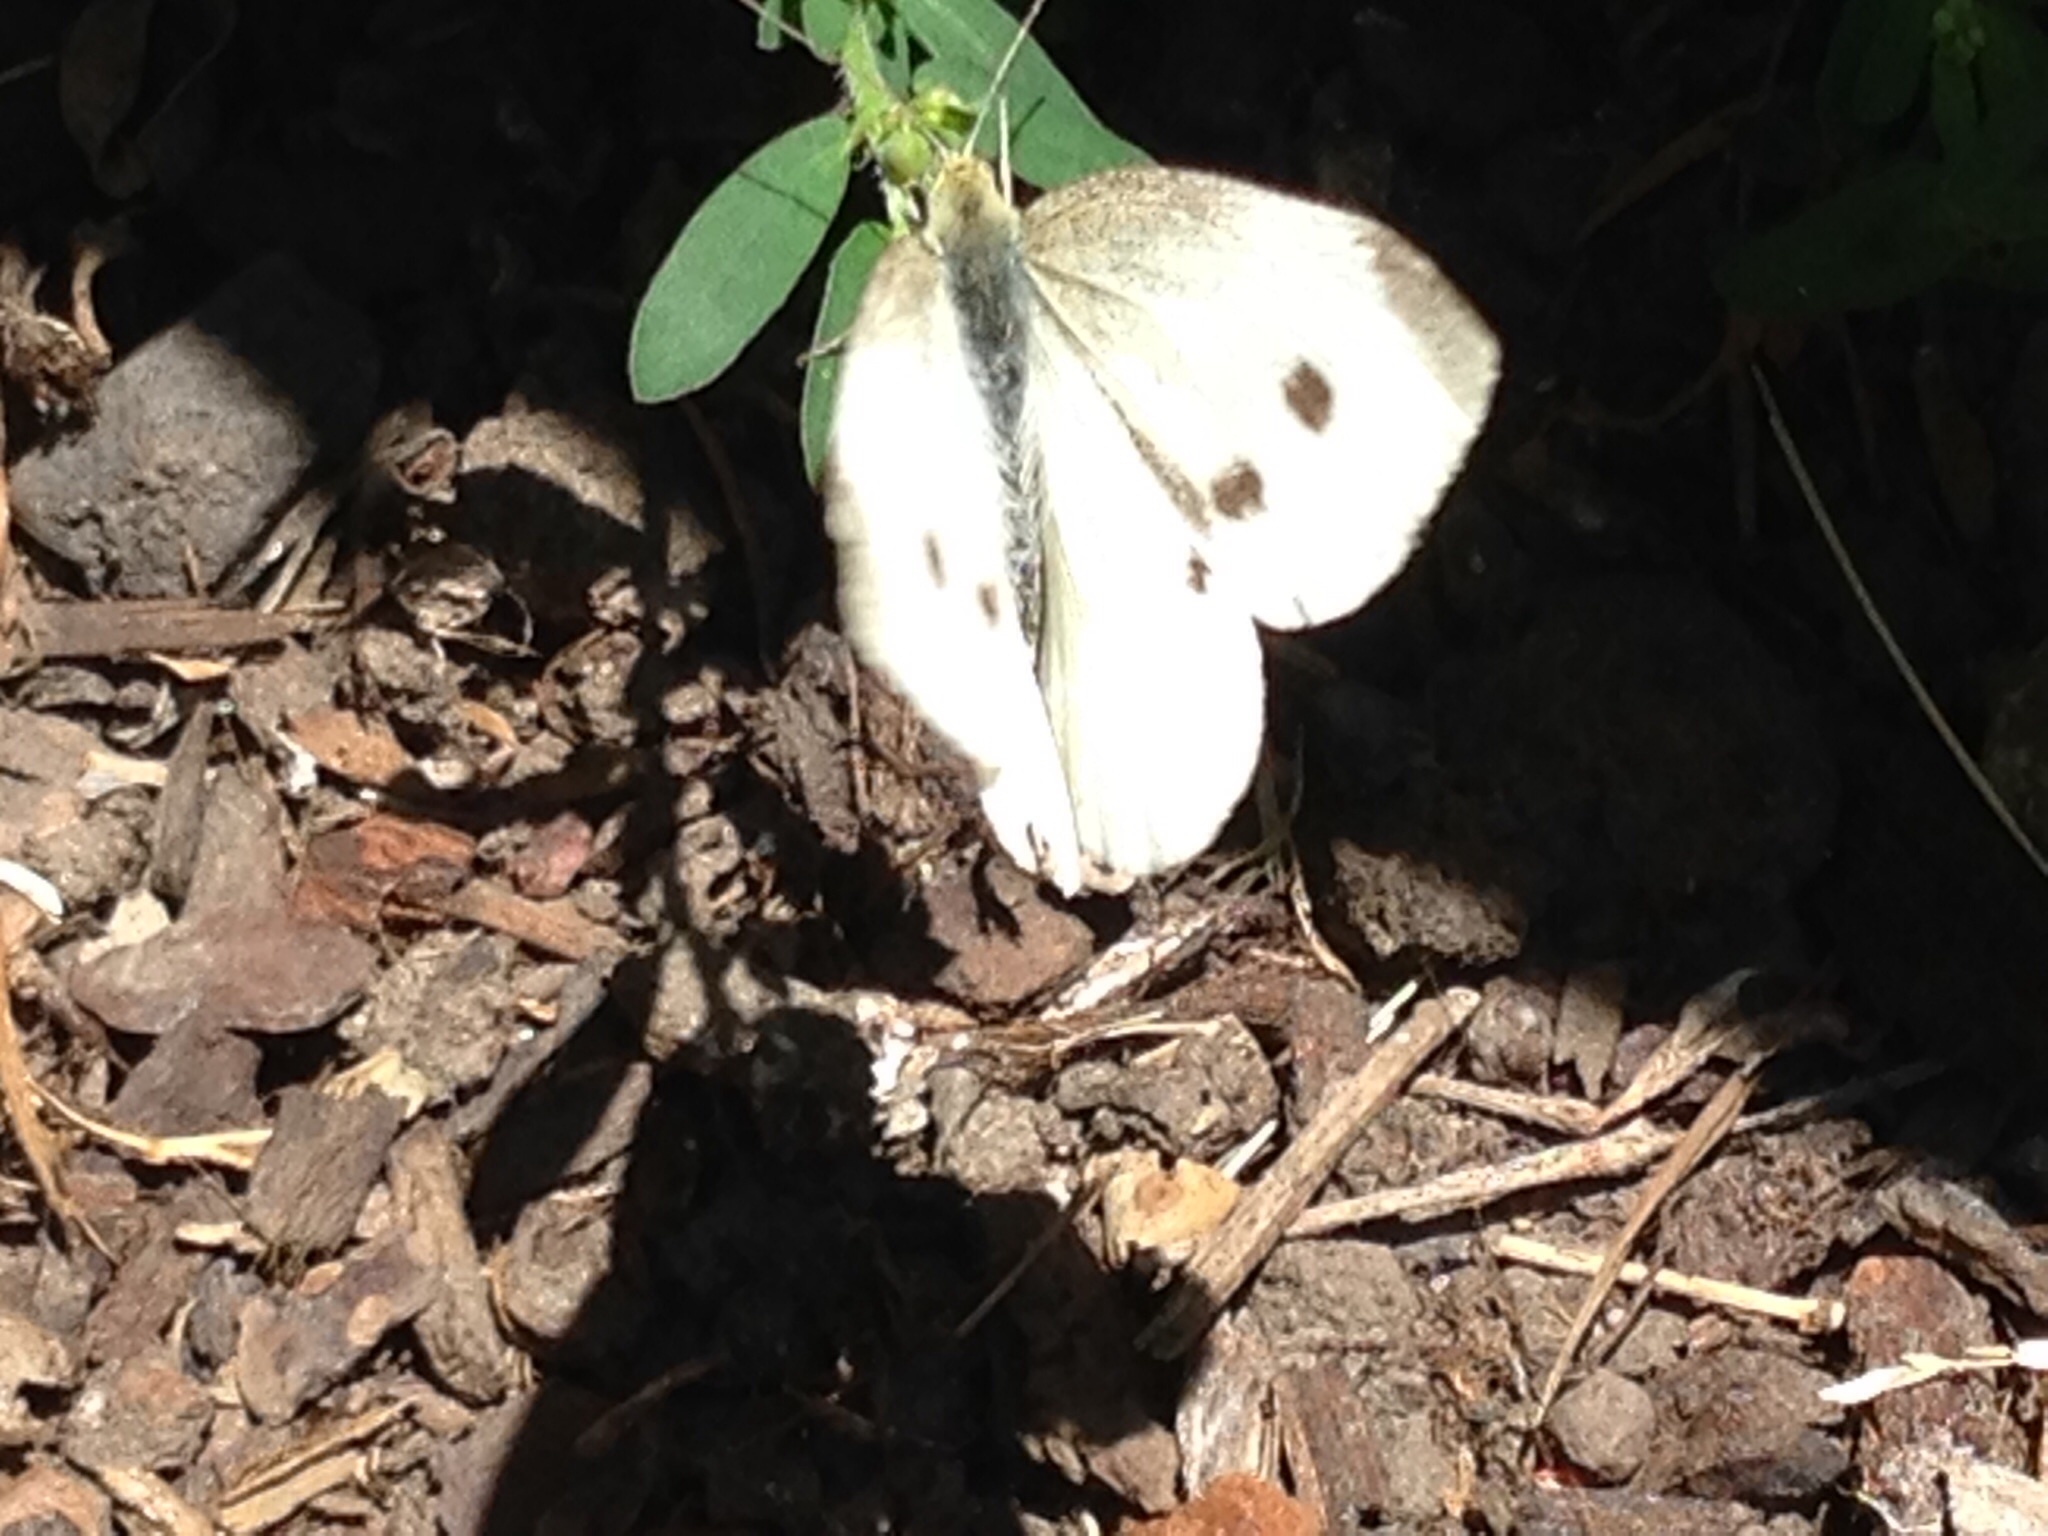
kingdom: Animalia
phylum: Arthropoda
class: Insecta
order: Lepidoptera
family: Pieridae
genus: Pieris
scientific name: Pieris rapae
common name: Small white
